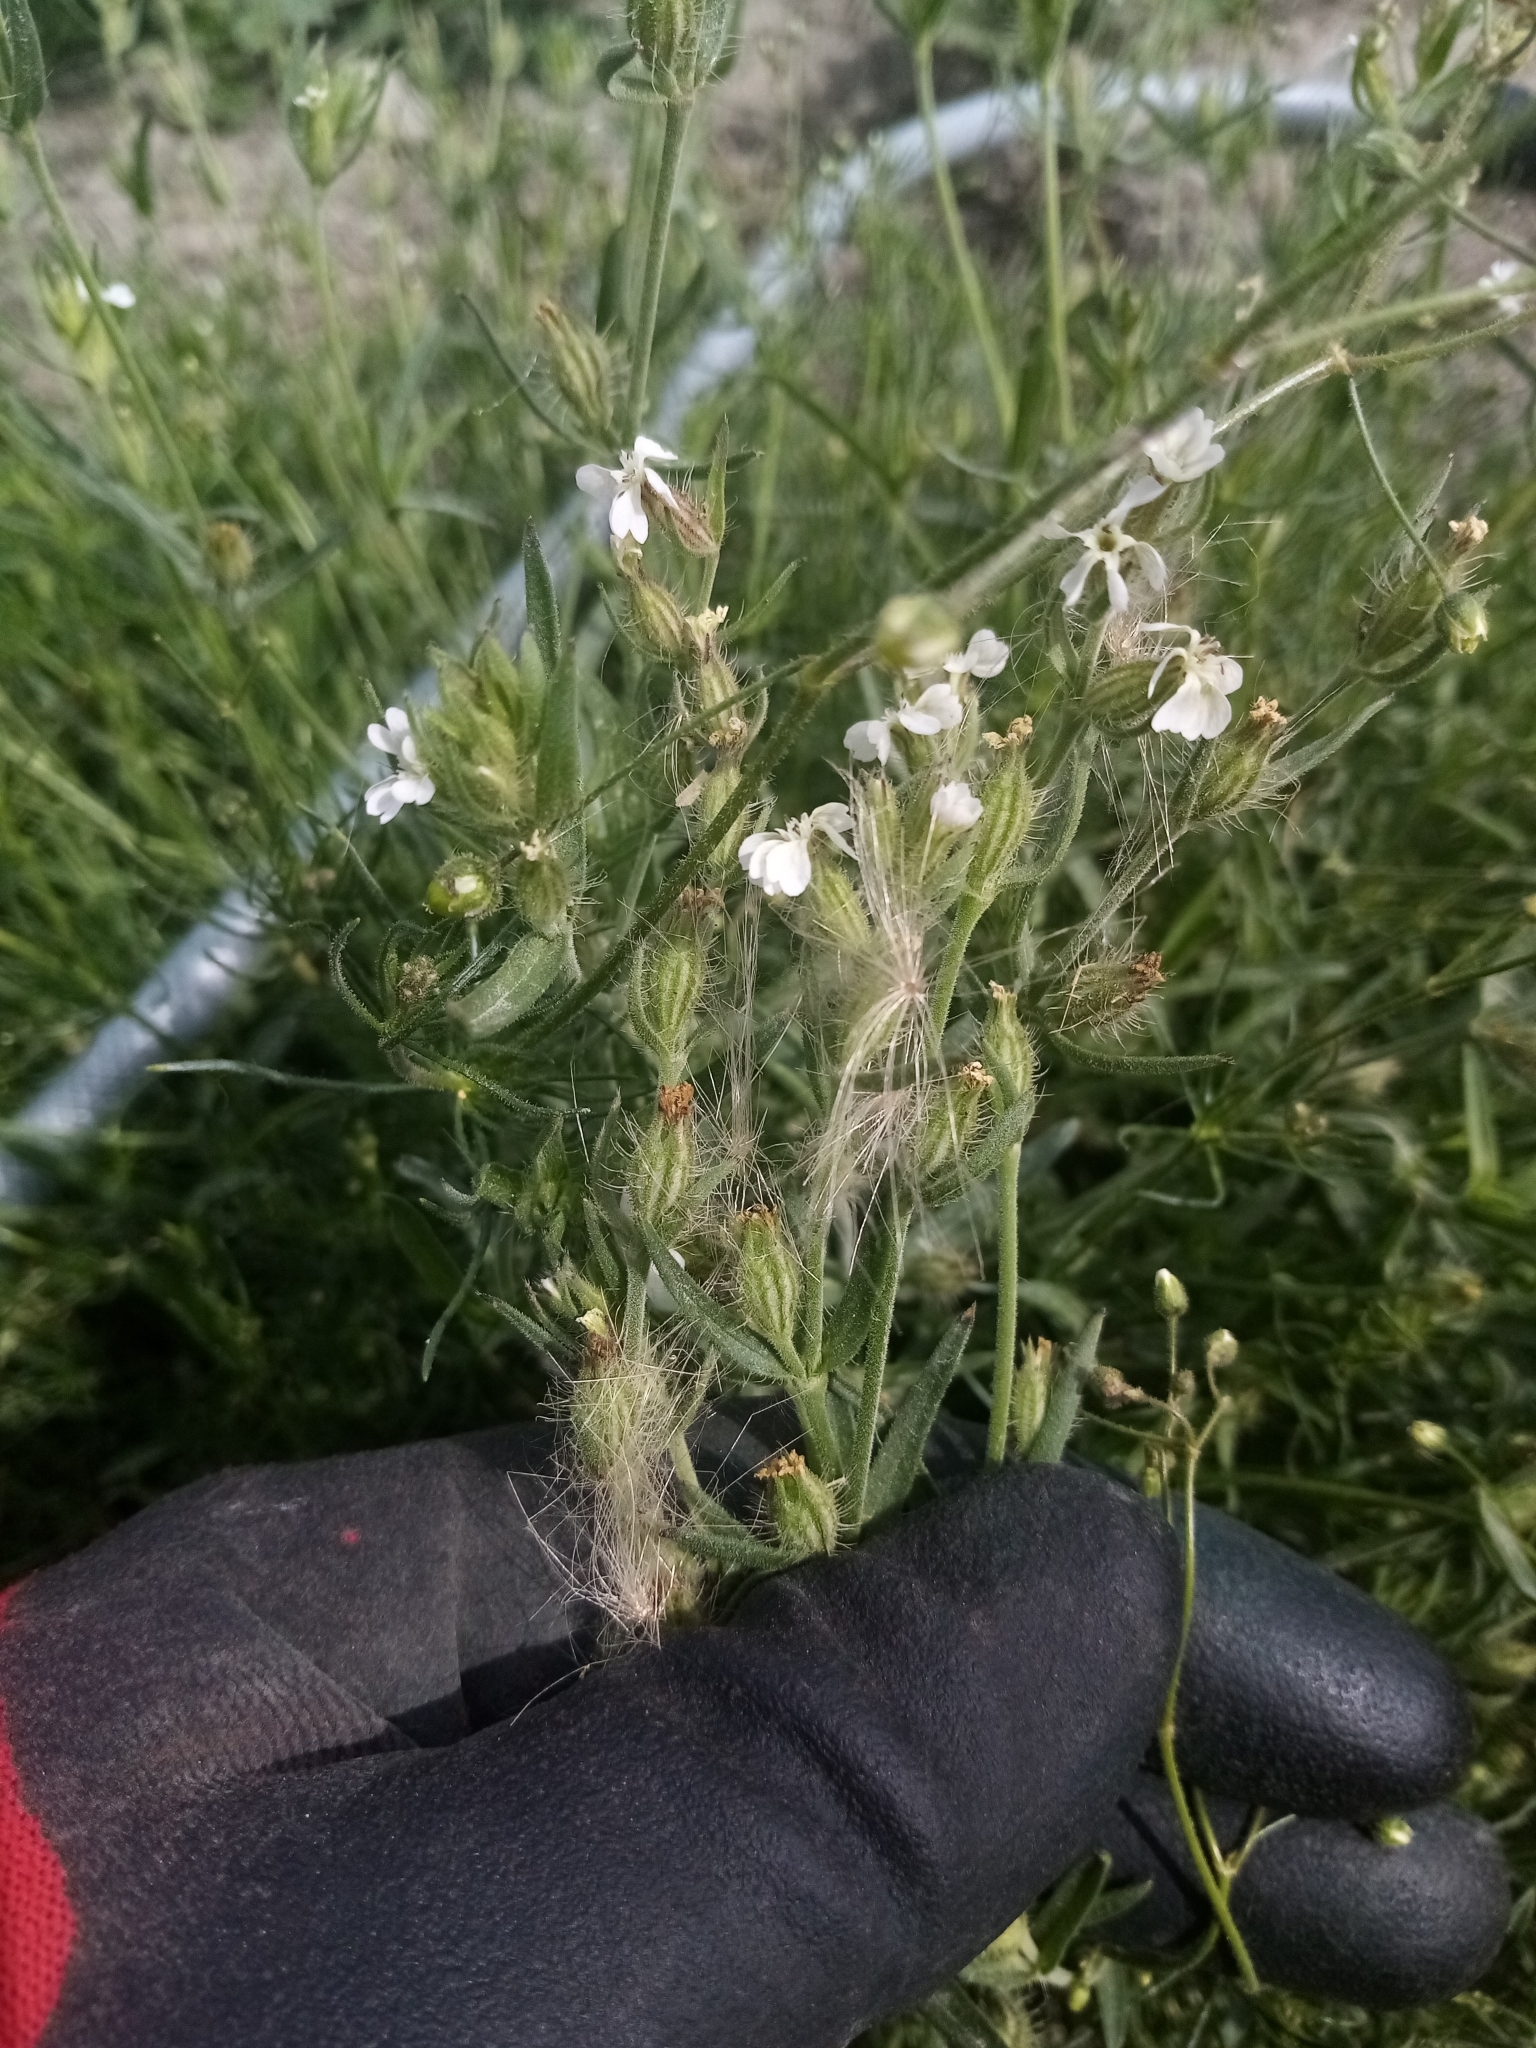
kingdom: Plantae
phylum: Tracheophyta
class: Magnoliopsida
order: Caryophyllales
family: Caryophyllaceae
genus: Silene
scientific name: Silene gallica
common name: Small-flowered catchfly
